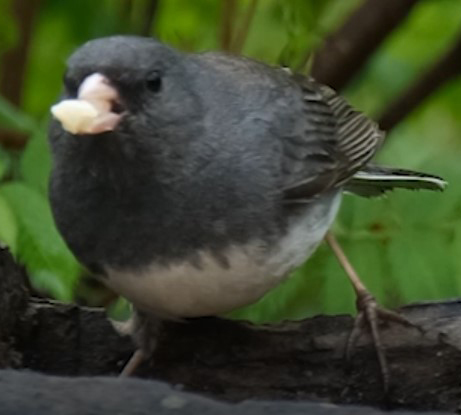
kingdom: Animalia
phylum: Chordata
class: Aves
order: Passeriformes
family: Passerellidae
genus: Junco
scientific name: Junco hyemalis
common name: Dark-eyed junco
